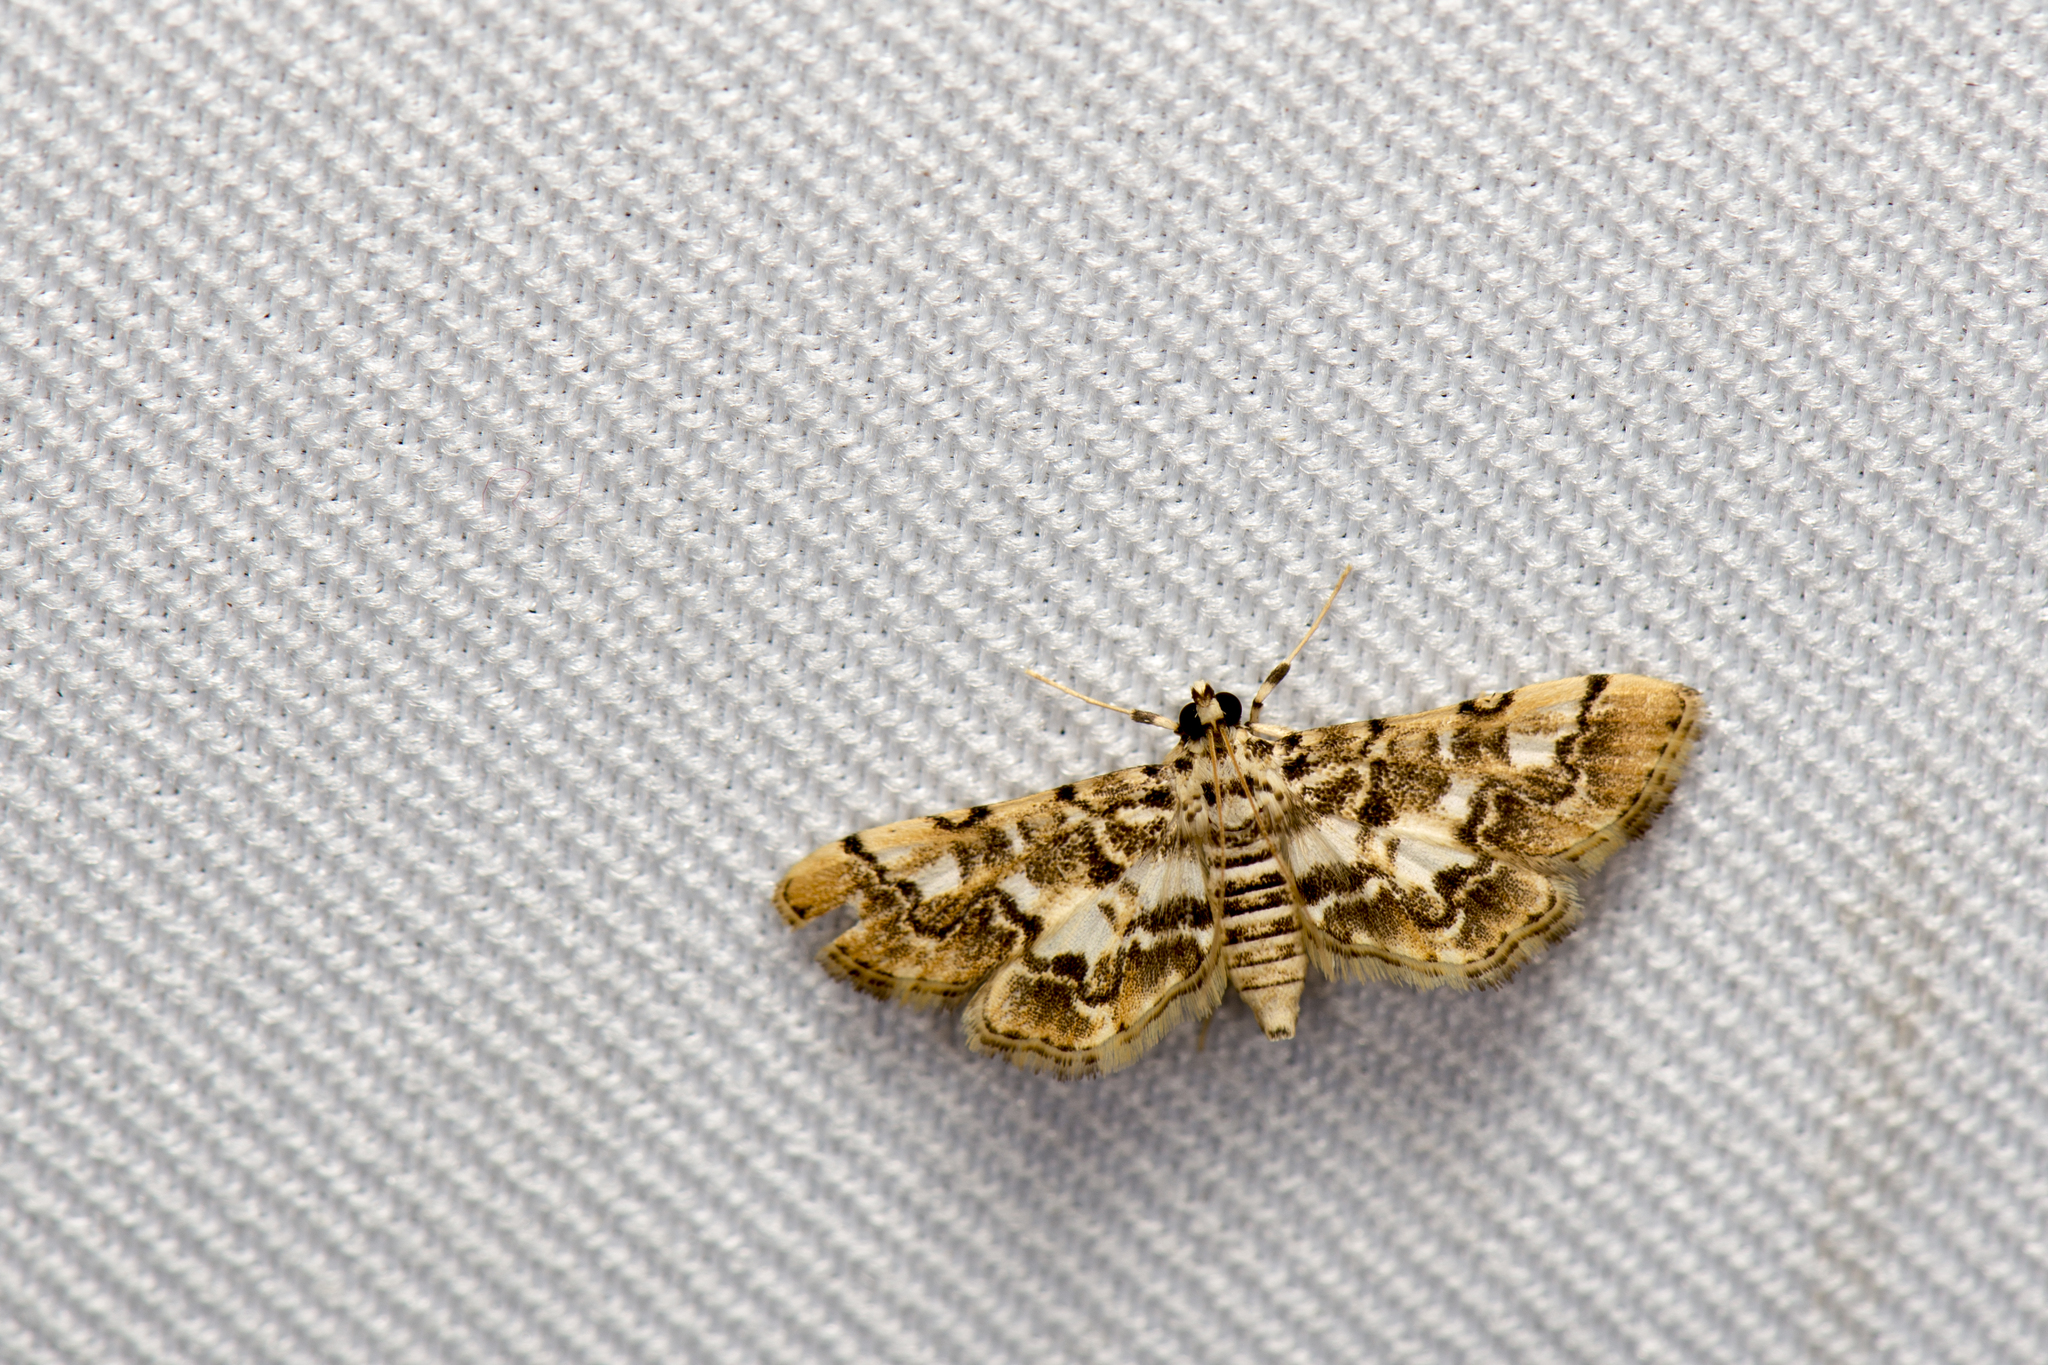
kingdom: Animalia
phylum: Arthropoda
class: Insecta
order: Lepidoptera
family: Crambidae
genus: Lamprosema
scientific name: Lamprosema commixta
